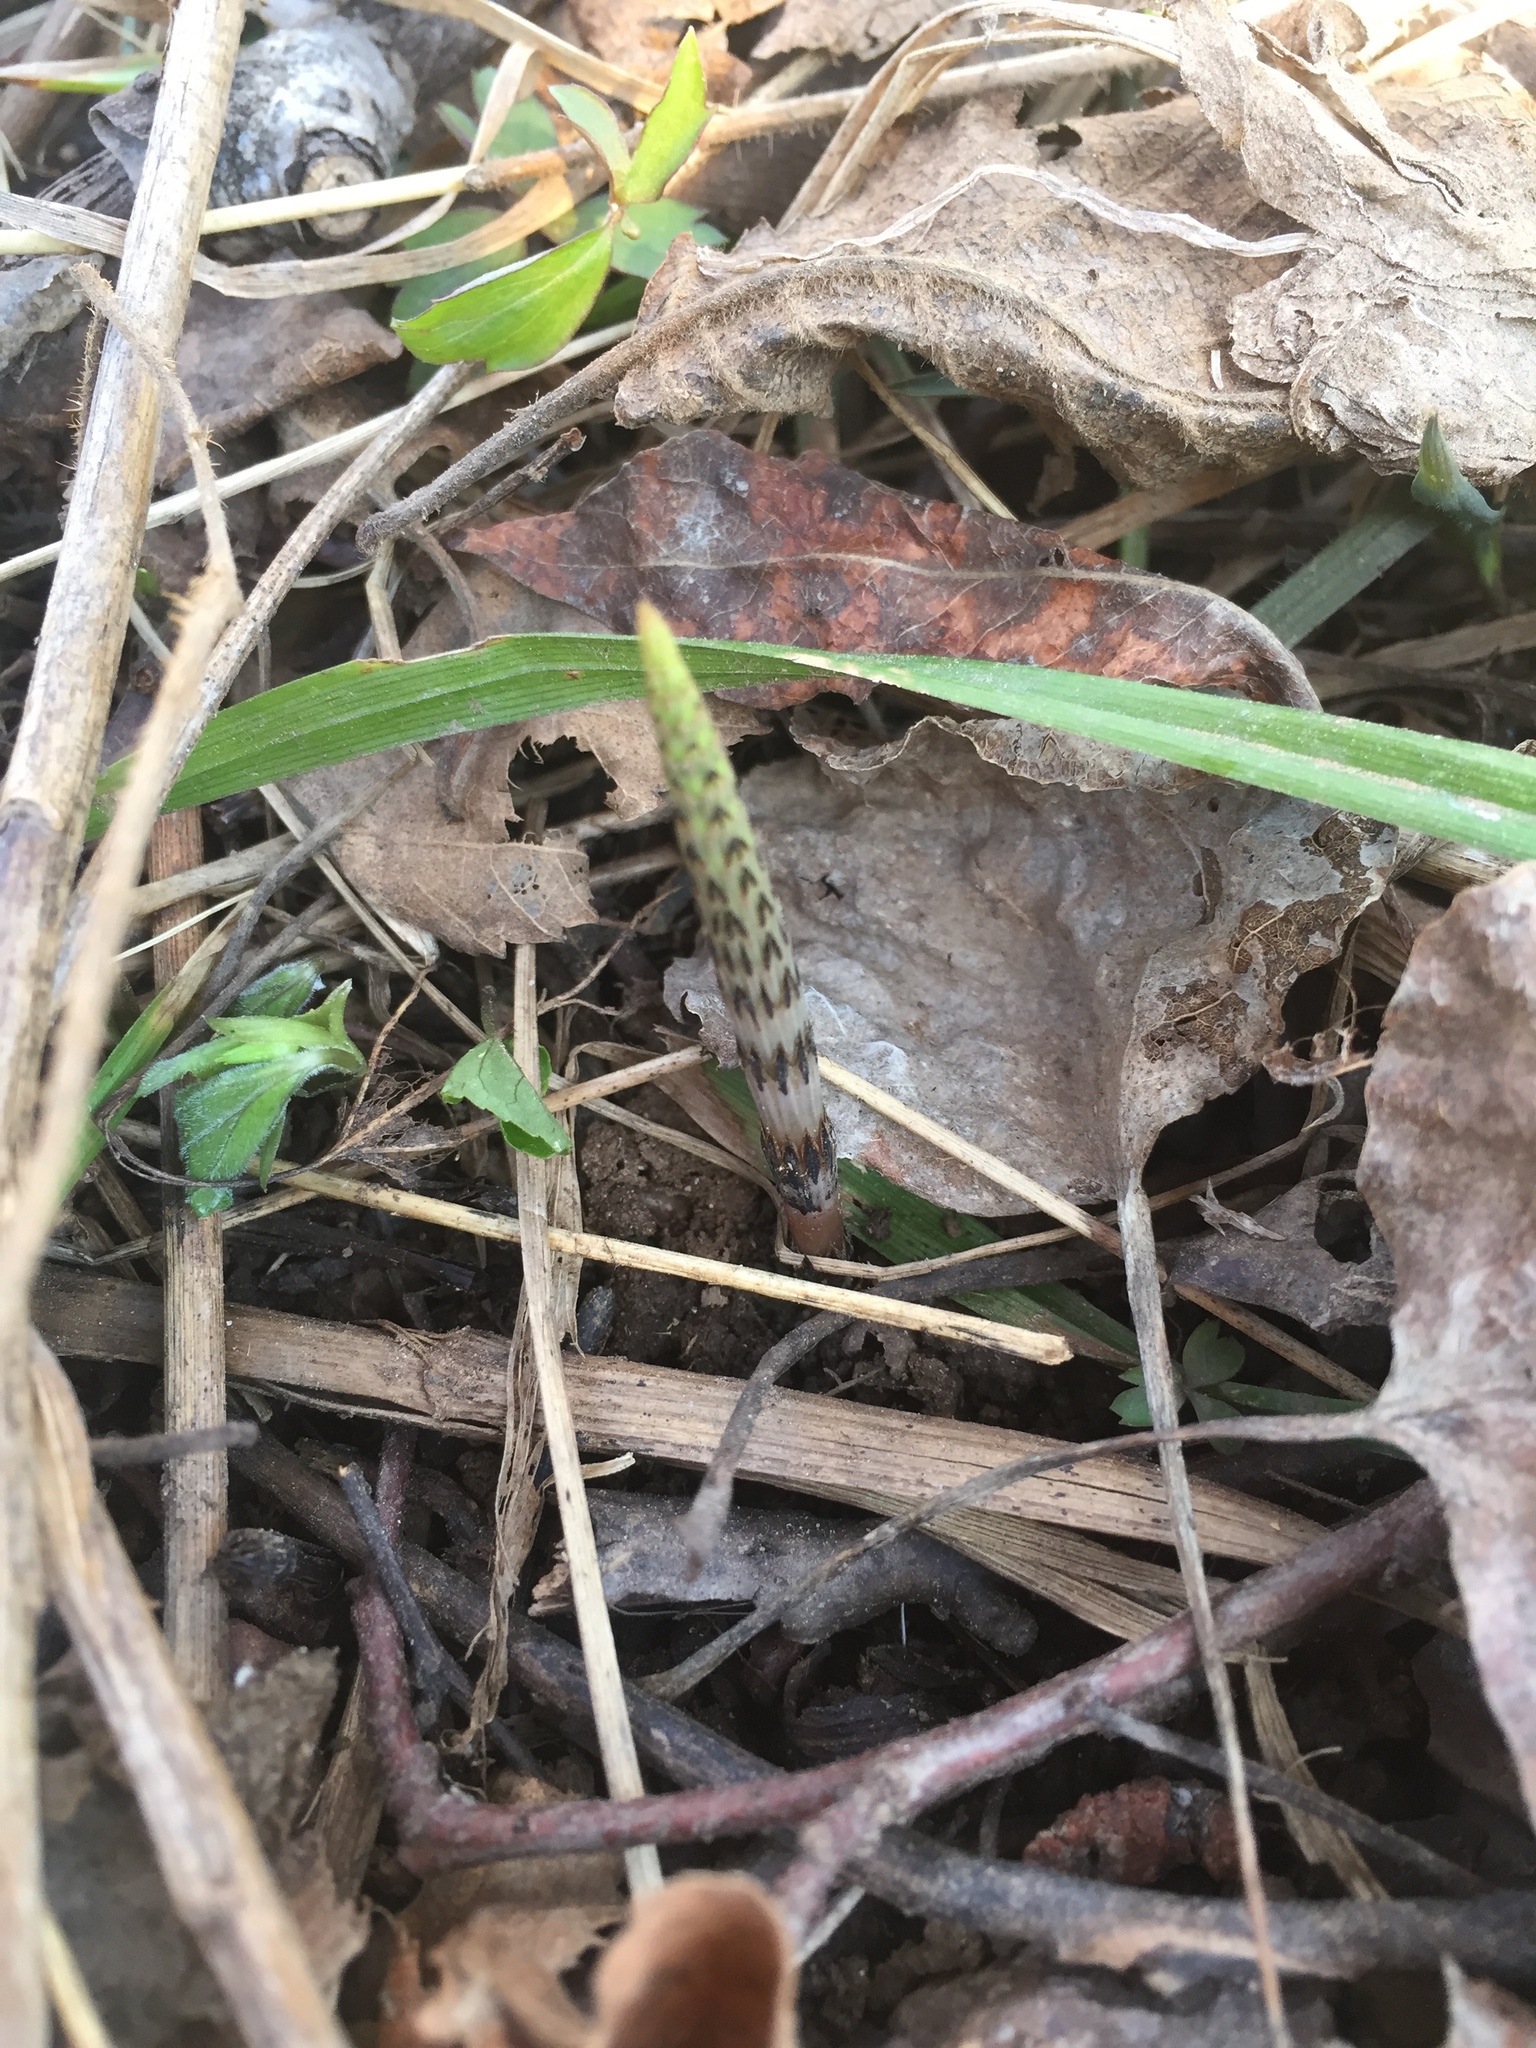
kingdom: Plantae
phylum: Tracheophyta
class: Polypodiopsida
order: Equisetales
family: Equisetaceae
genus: Equisetum
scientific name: Equisetum arvense
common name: Field horsetail
